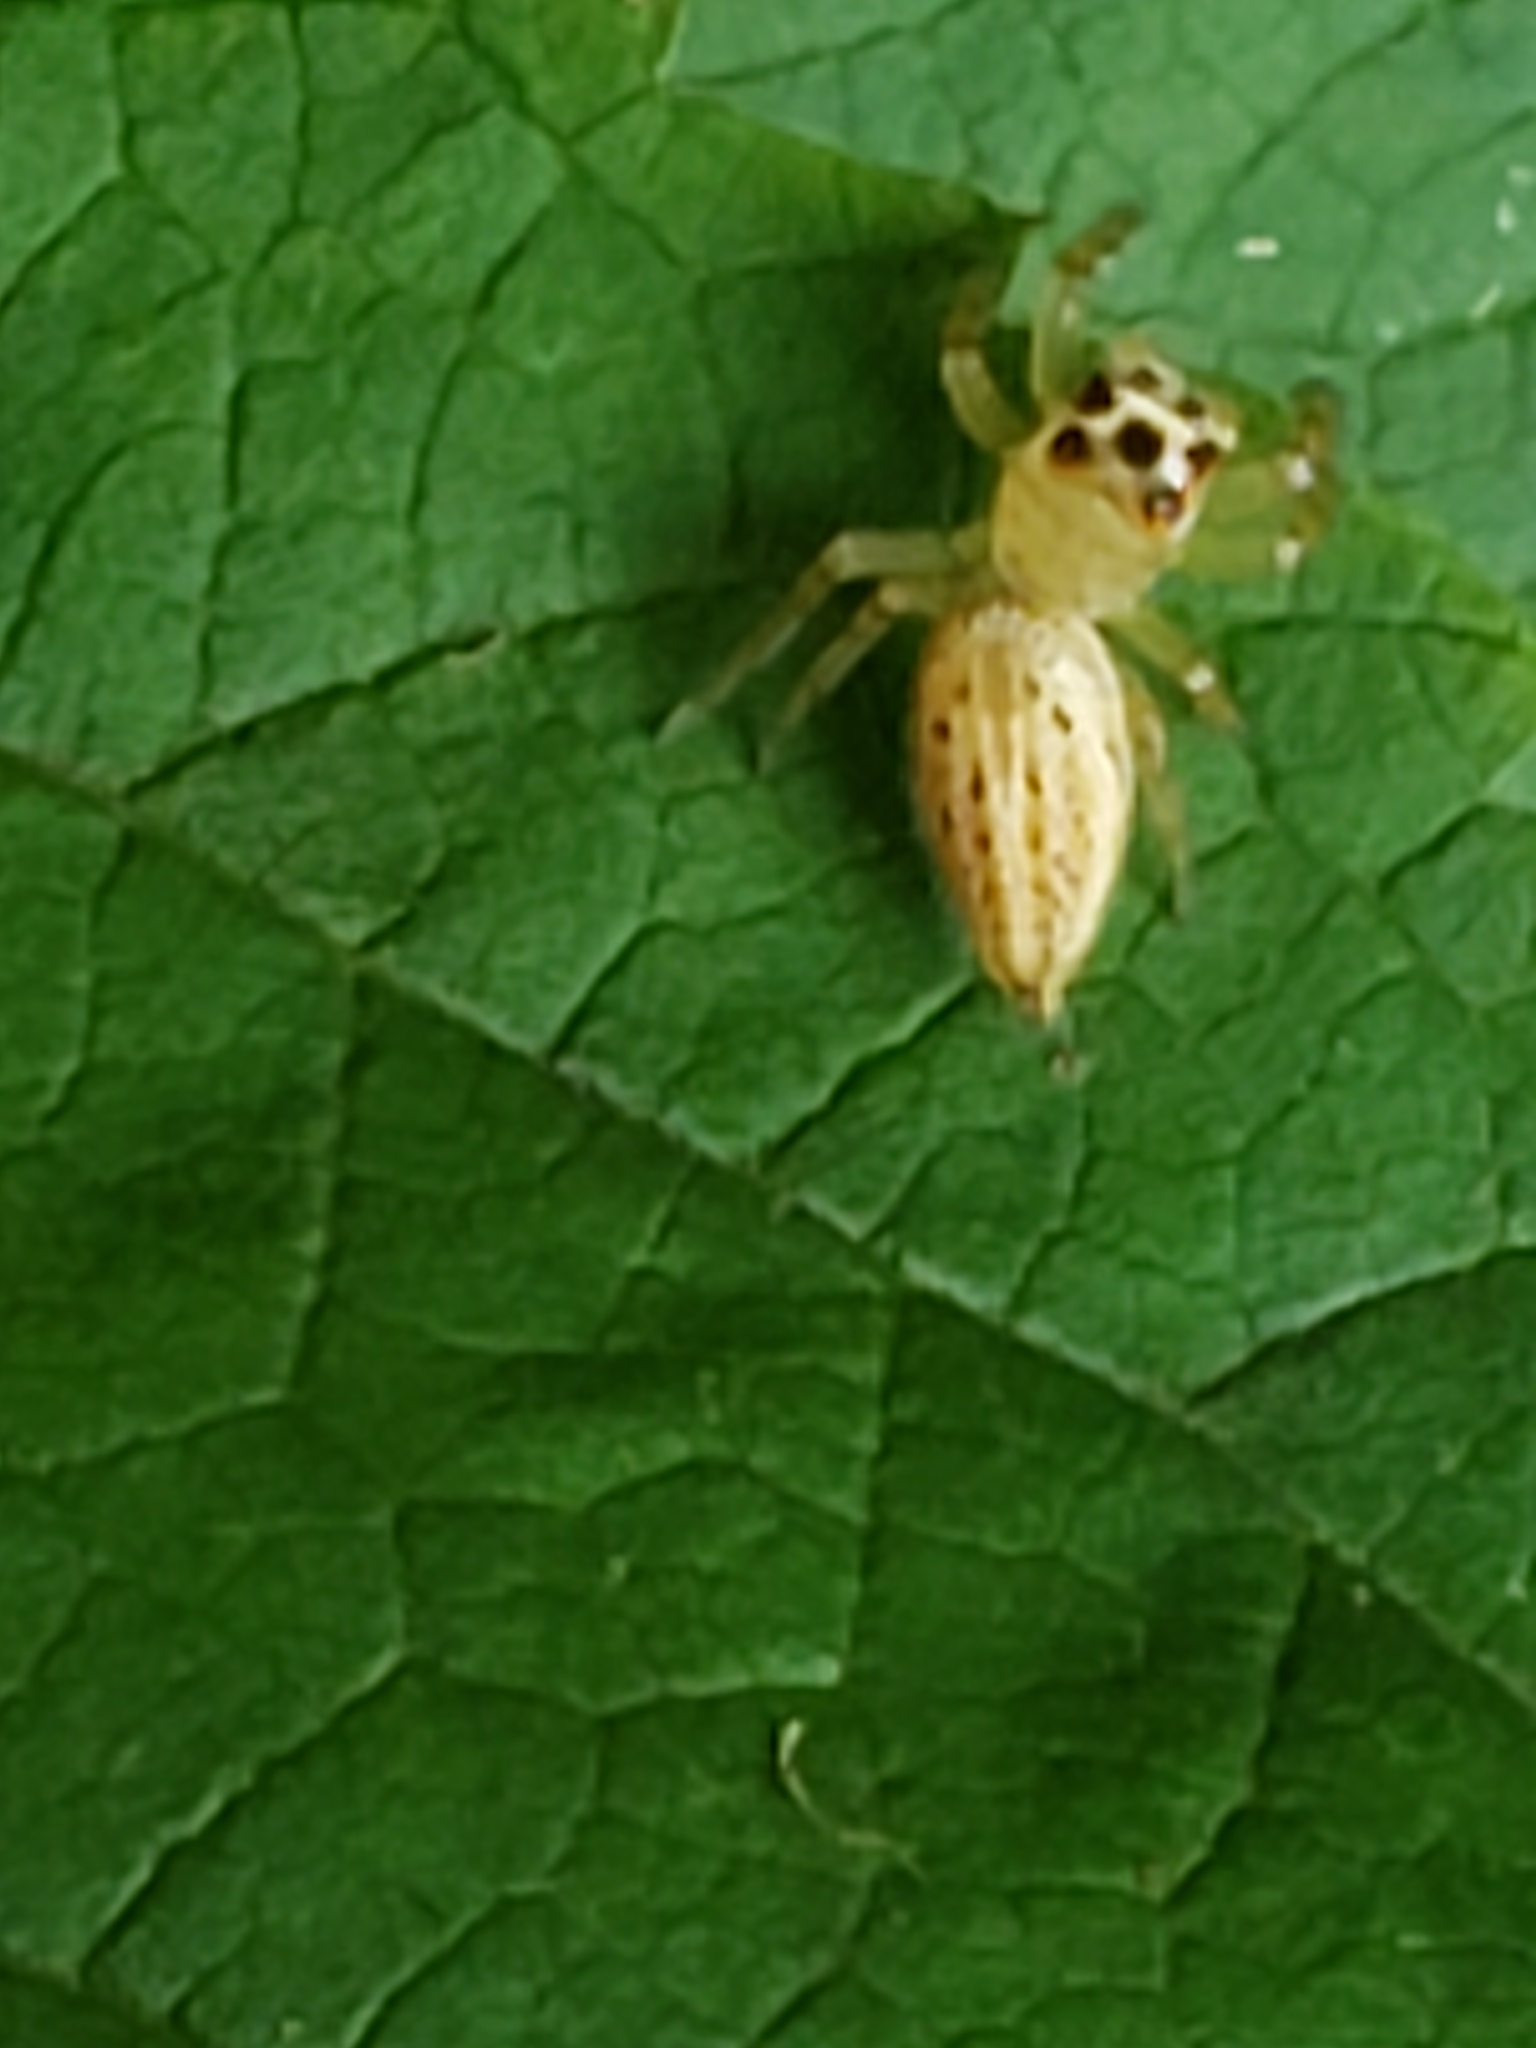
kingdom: Animalia
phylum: Arthropoda
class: Arachnida
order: Araneae
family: Salticidae
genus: Colonus
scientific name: Colonus sylvanus
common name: Jumping spiders
